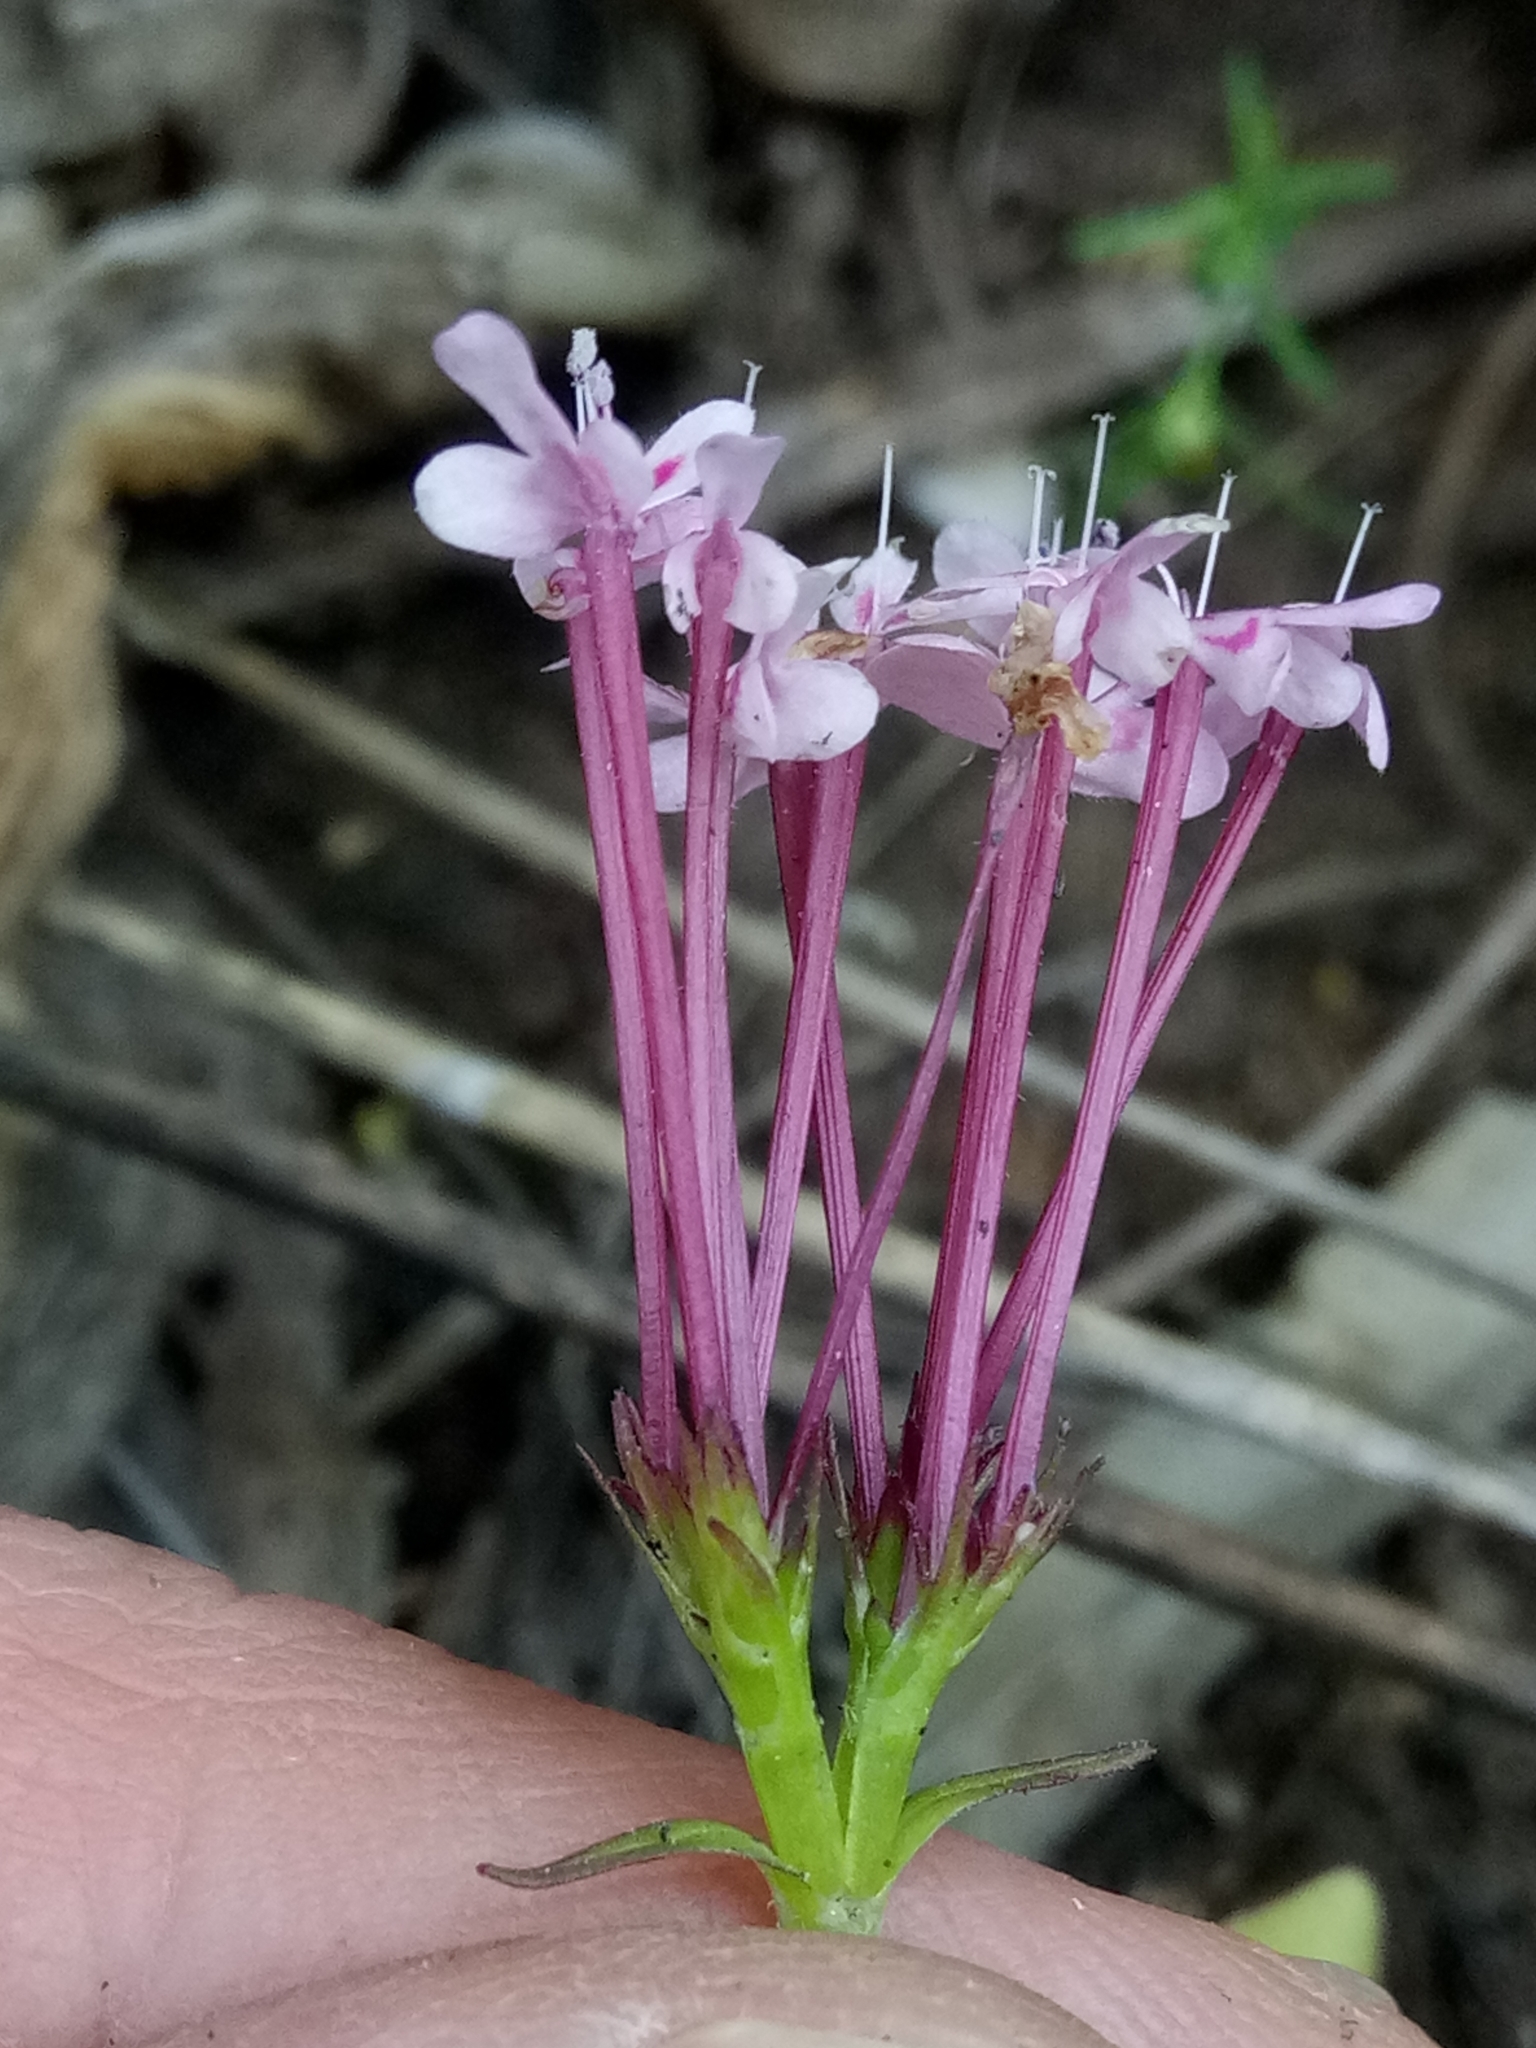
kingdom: Plantae
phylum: Tracheophyta
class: Magnoliopsida
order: Dipsacales
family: Caprifoliaceae
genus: Fedia
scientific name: Fedia graciliflora
